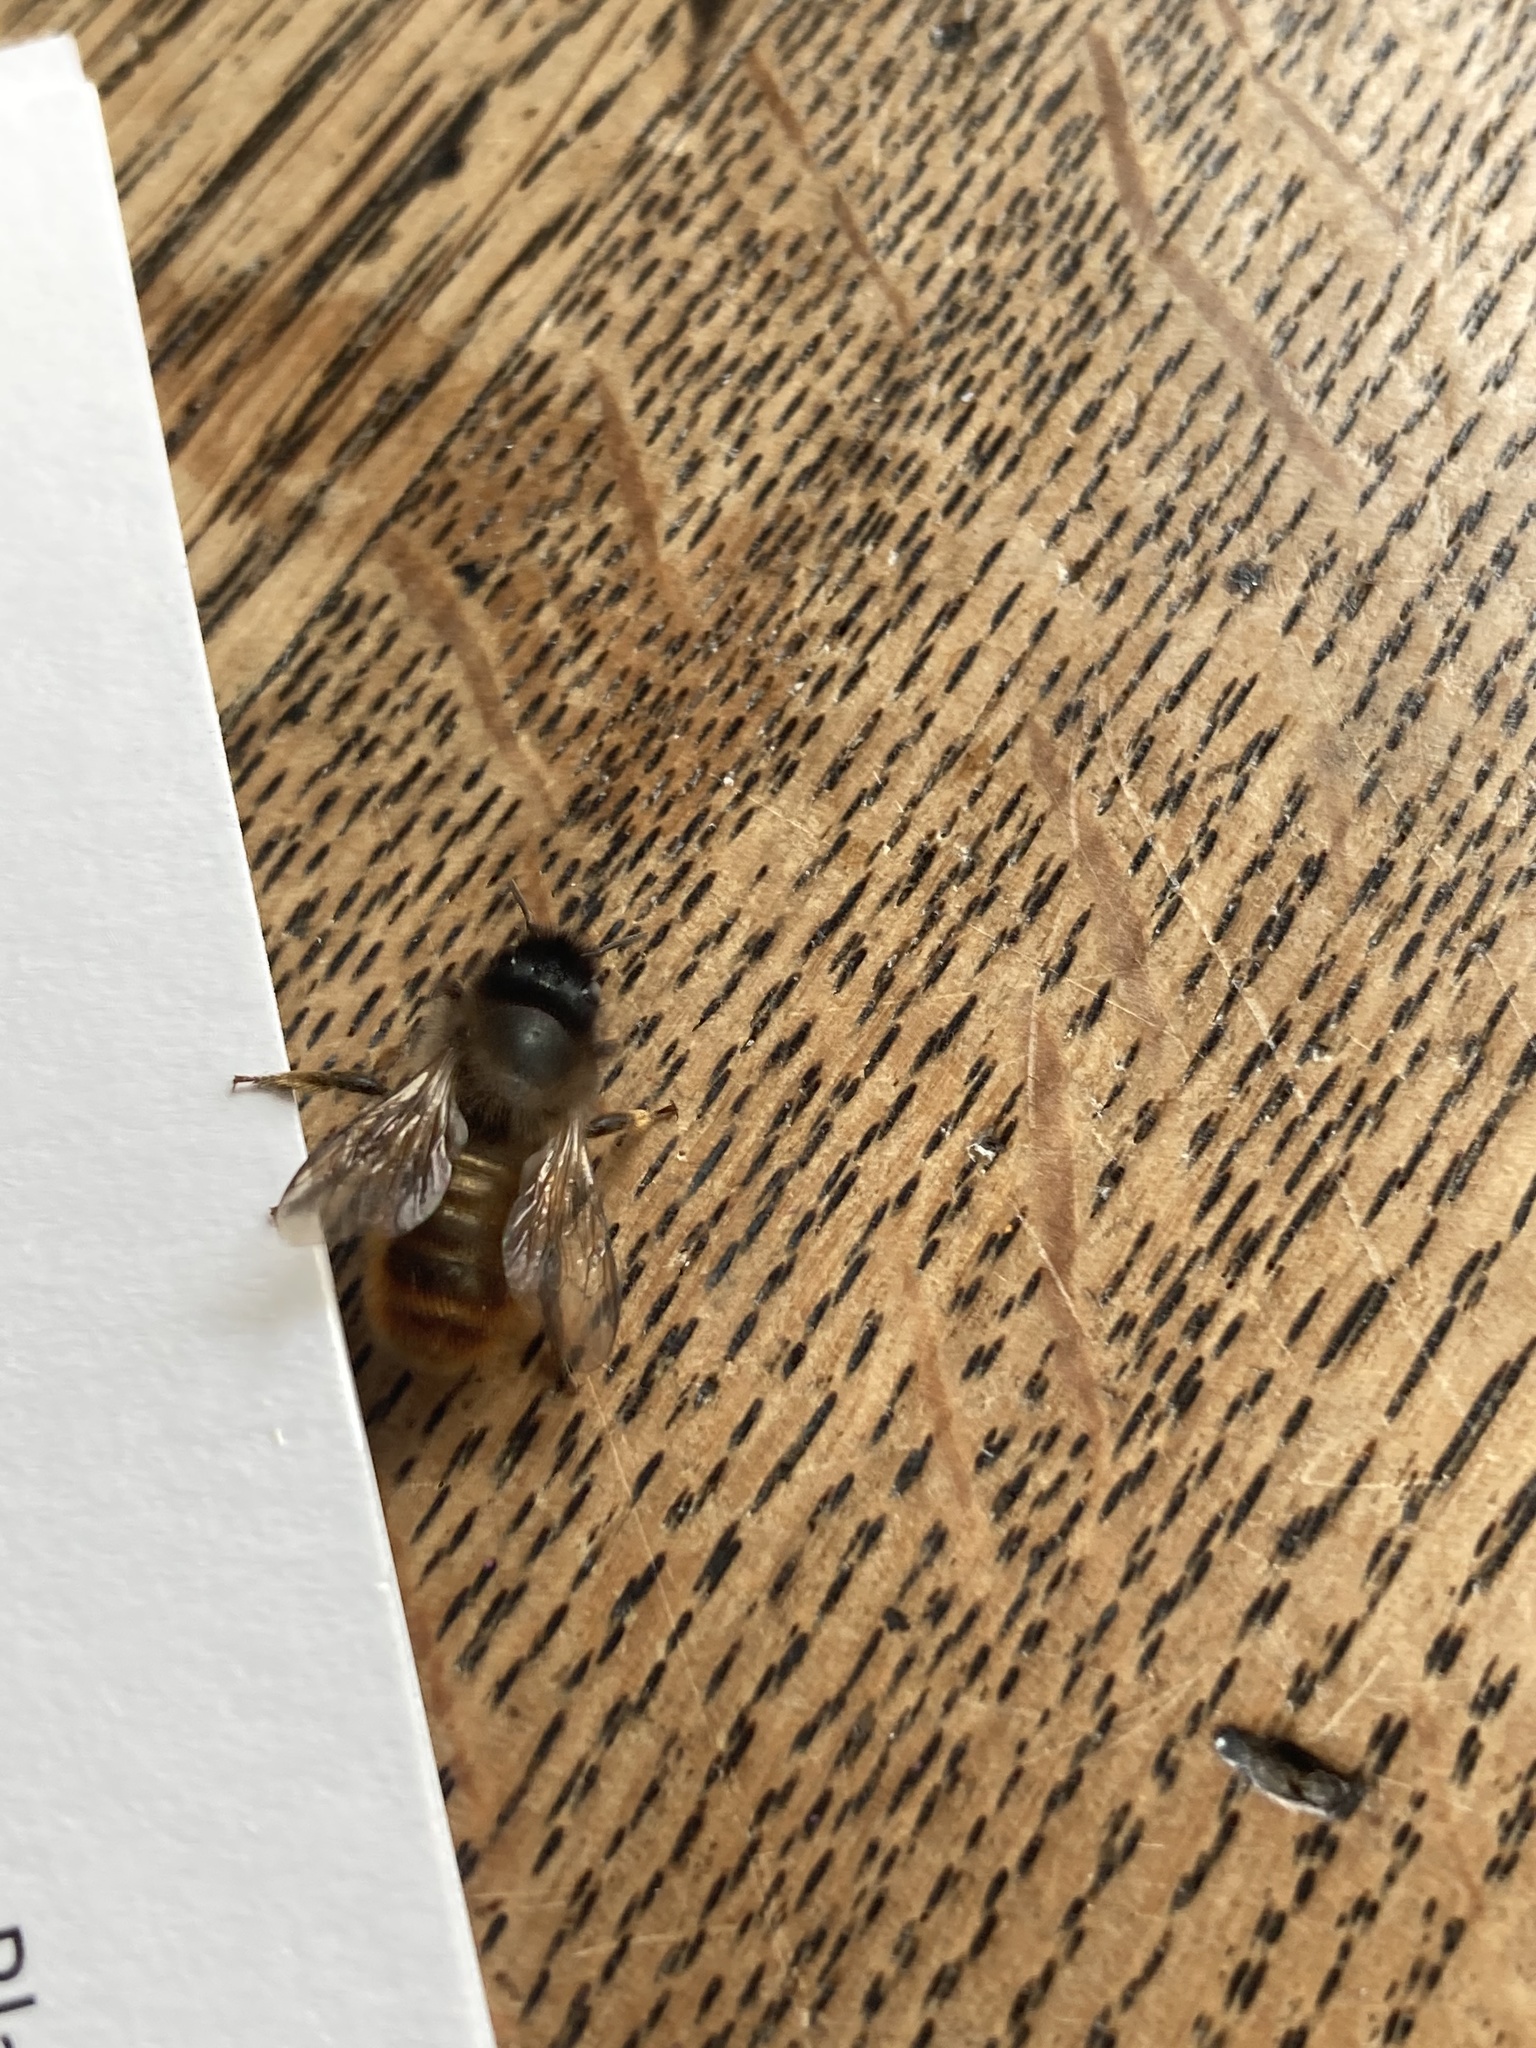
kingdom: Animalia
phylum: Arthropoda
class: Insecta
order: Hymenoptera
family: Megachilidae
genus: Osmia
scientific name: Osmia bicornis
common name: Red mason bee
